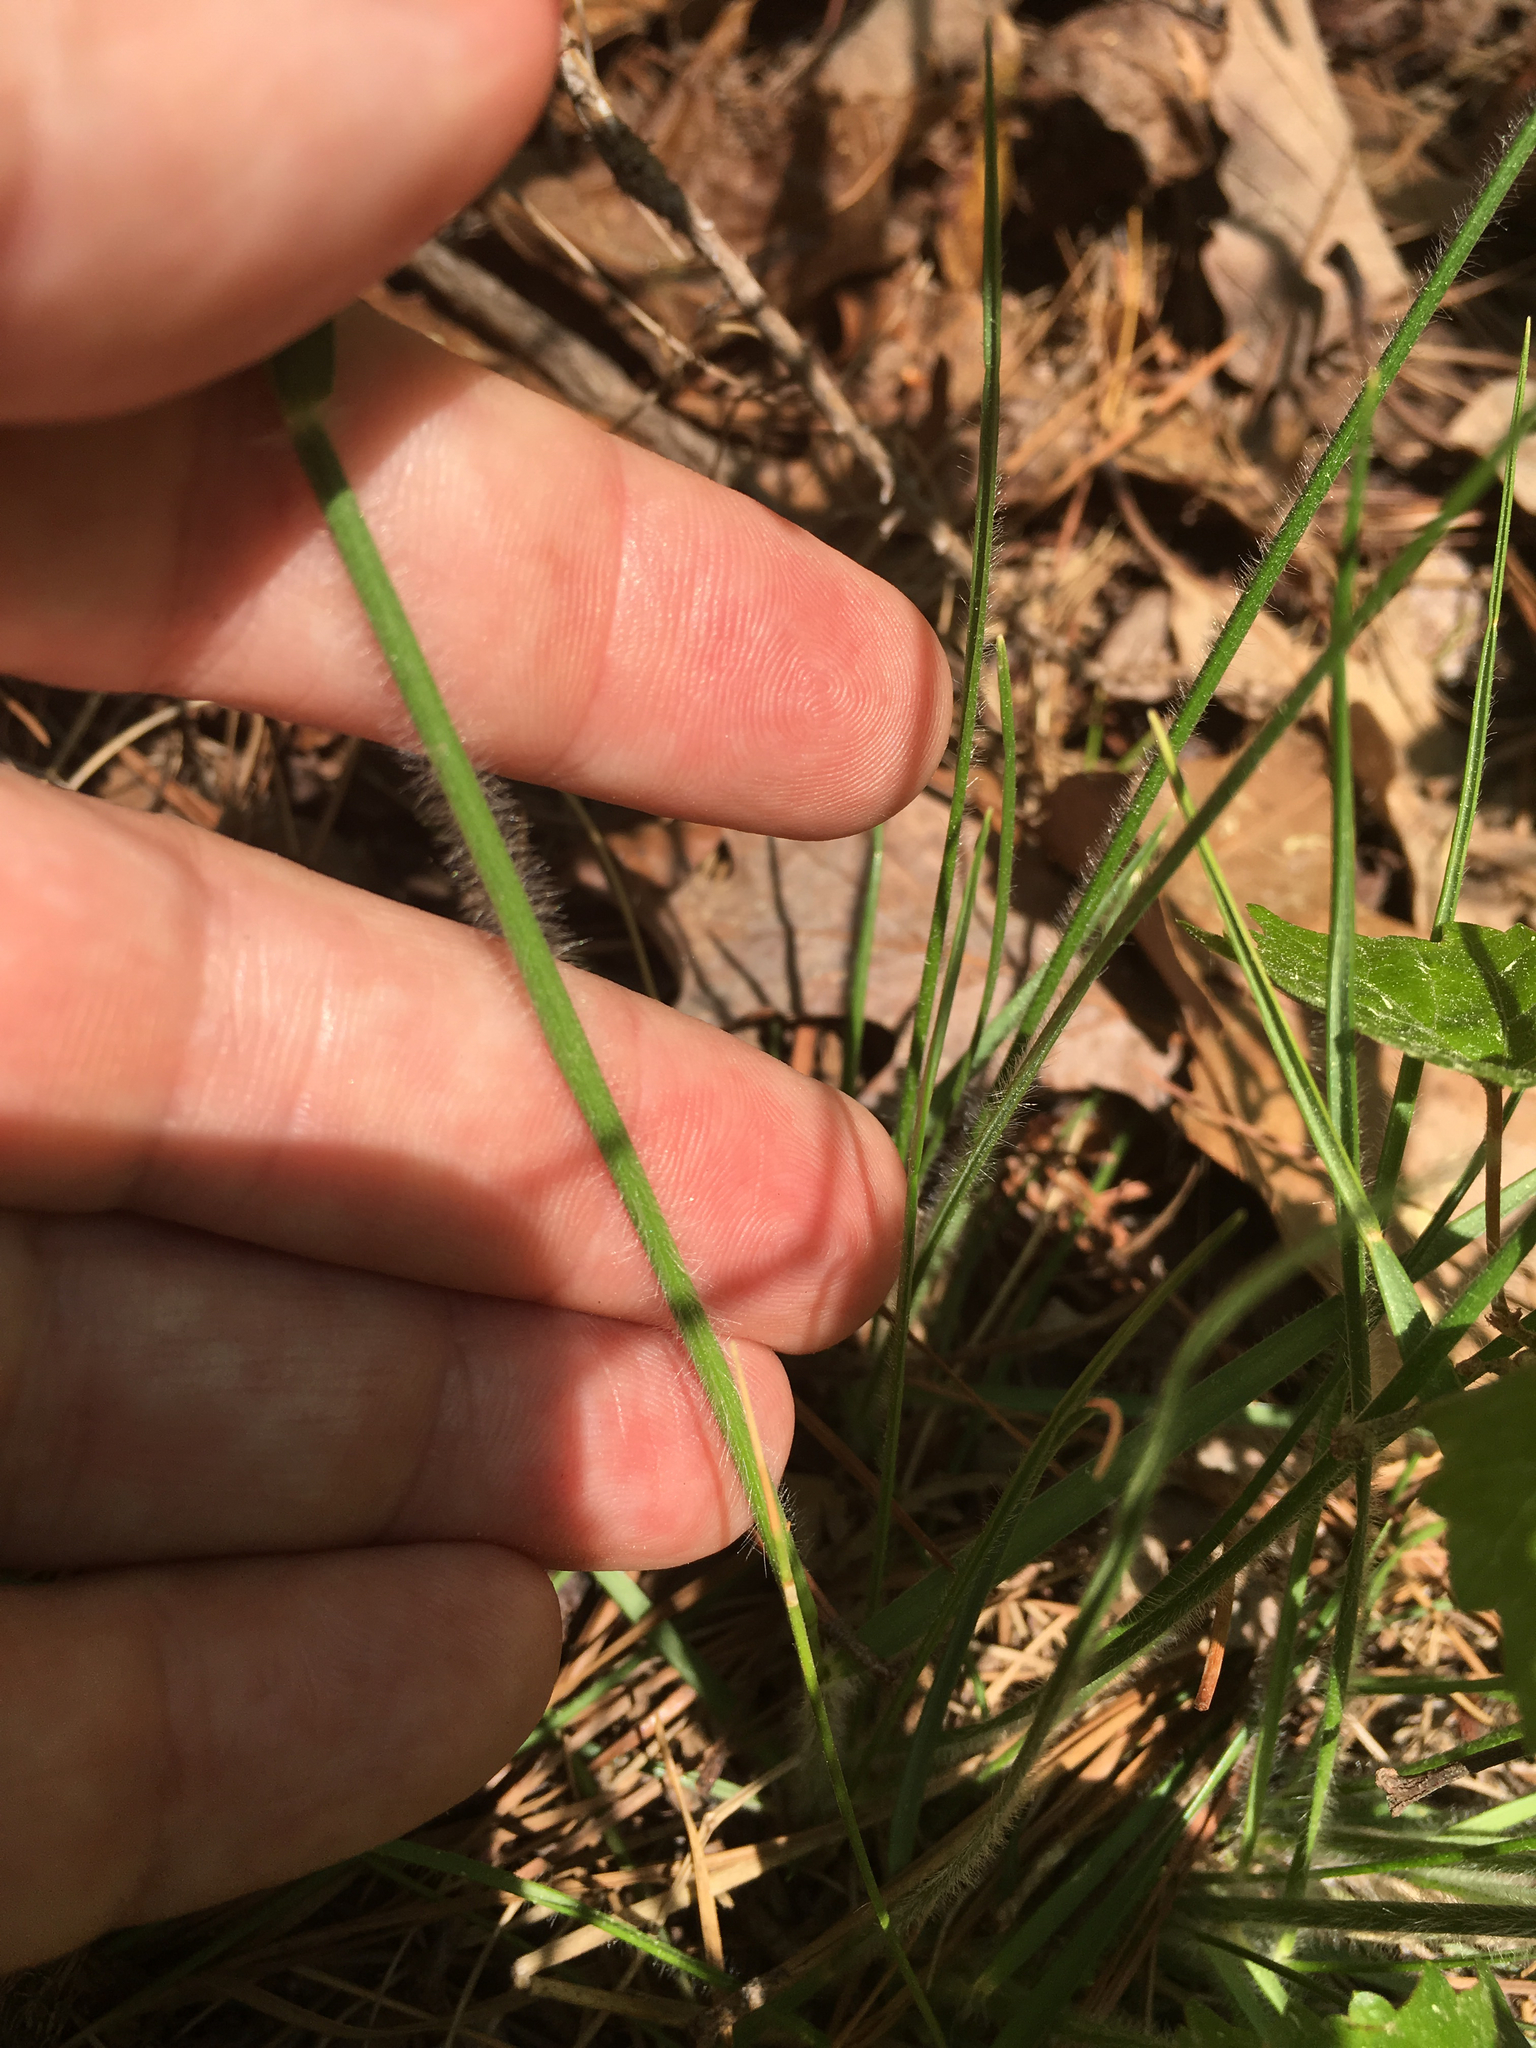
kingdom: Plantae
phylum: Tracheophyta
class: Liliopsida
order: Poales
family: Poaceae
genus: Danthonia
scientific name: Danthonia sericea
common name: Downy danthonia
